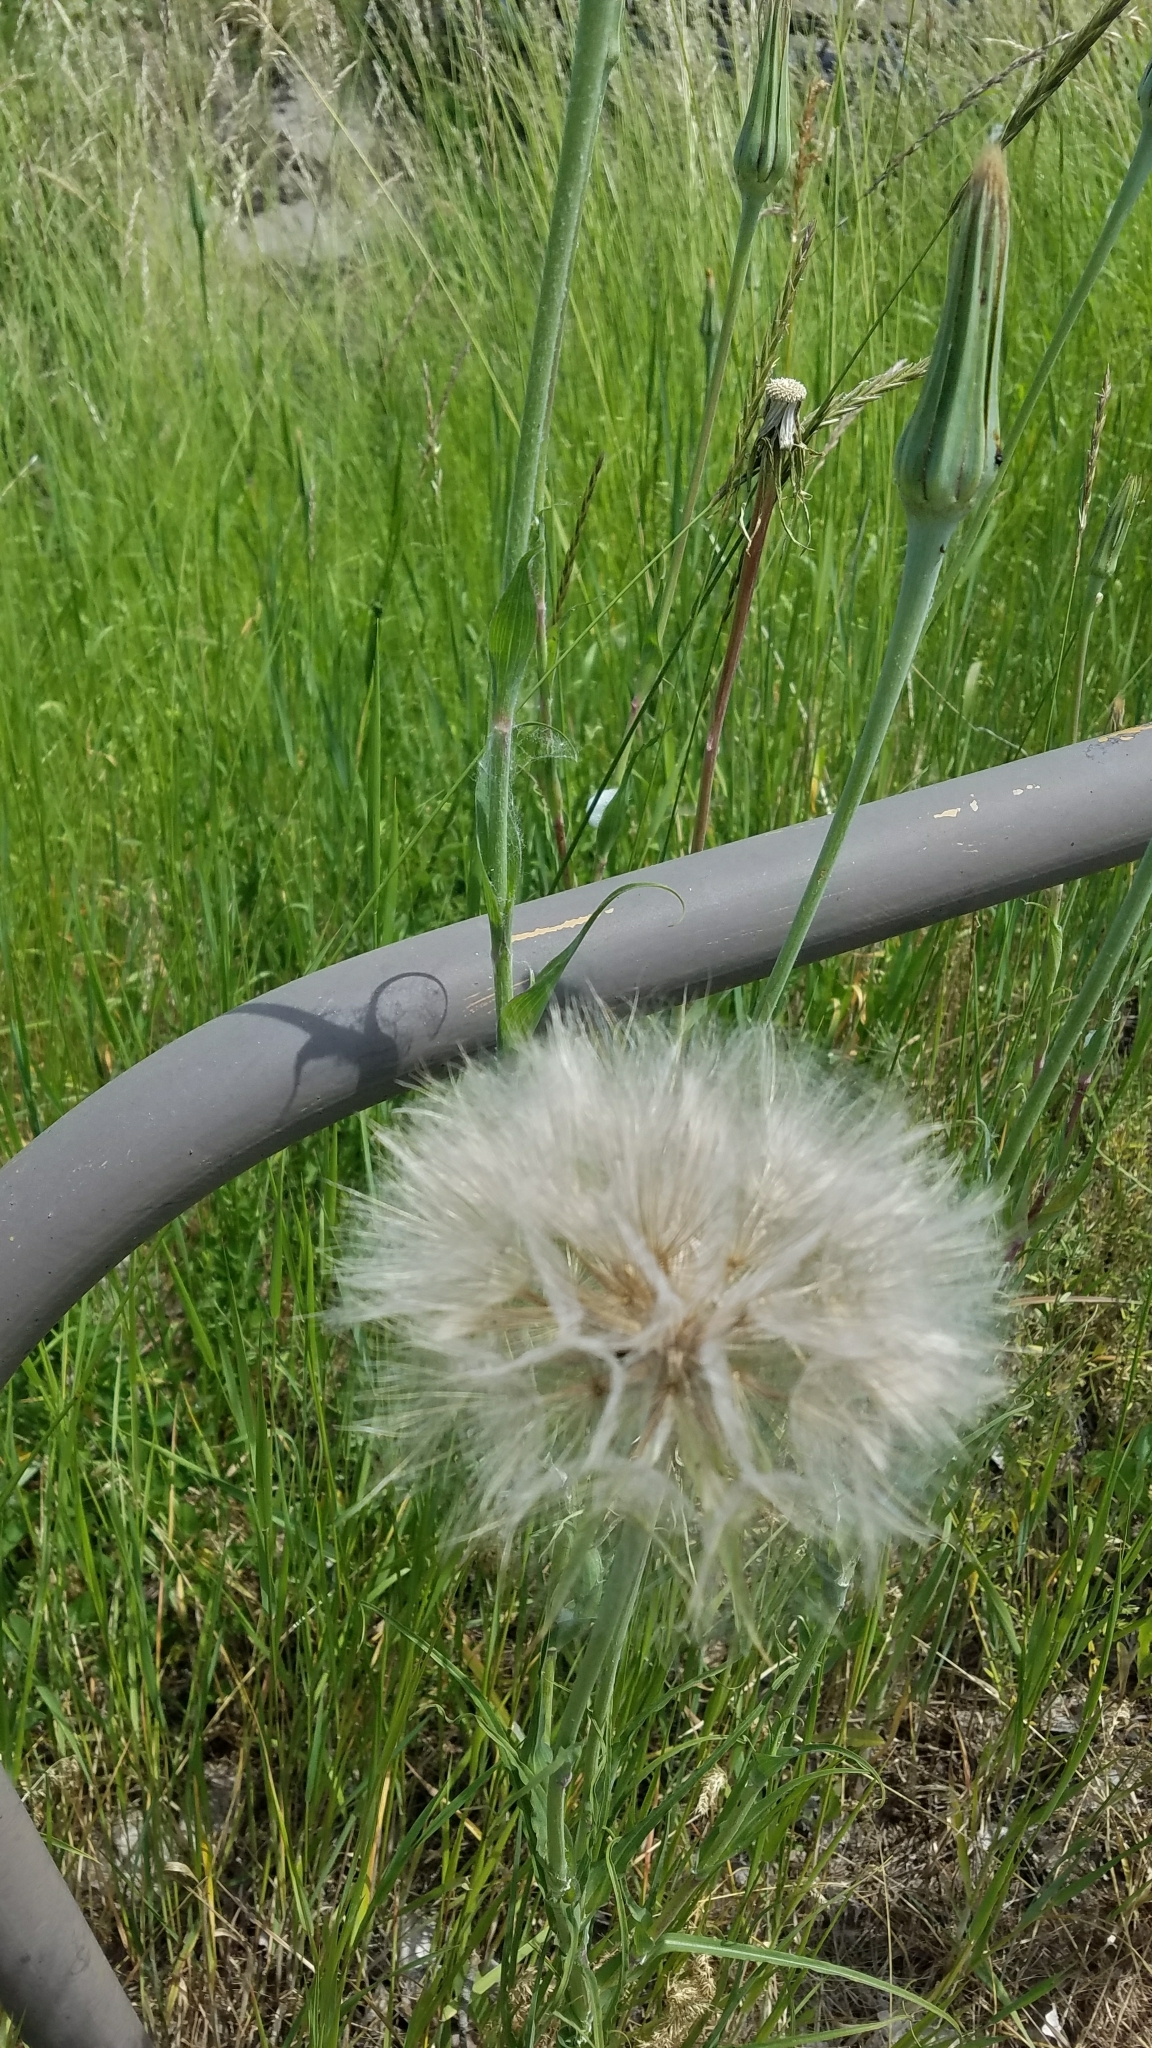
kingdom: Plantae
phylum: Tracheophyta
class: Magnoliopsida
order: Asterales
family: Asteraceae
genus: Tragopogon
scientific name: Tragopogon dubius
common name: Yellow salsify
